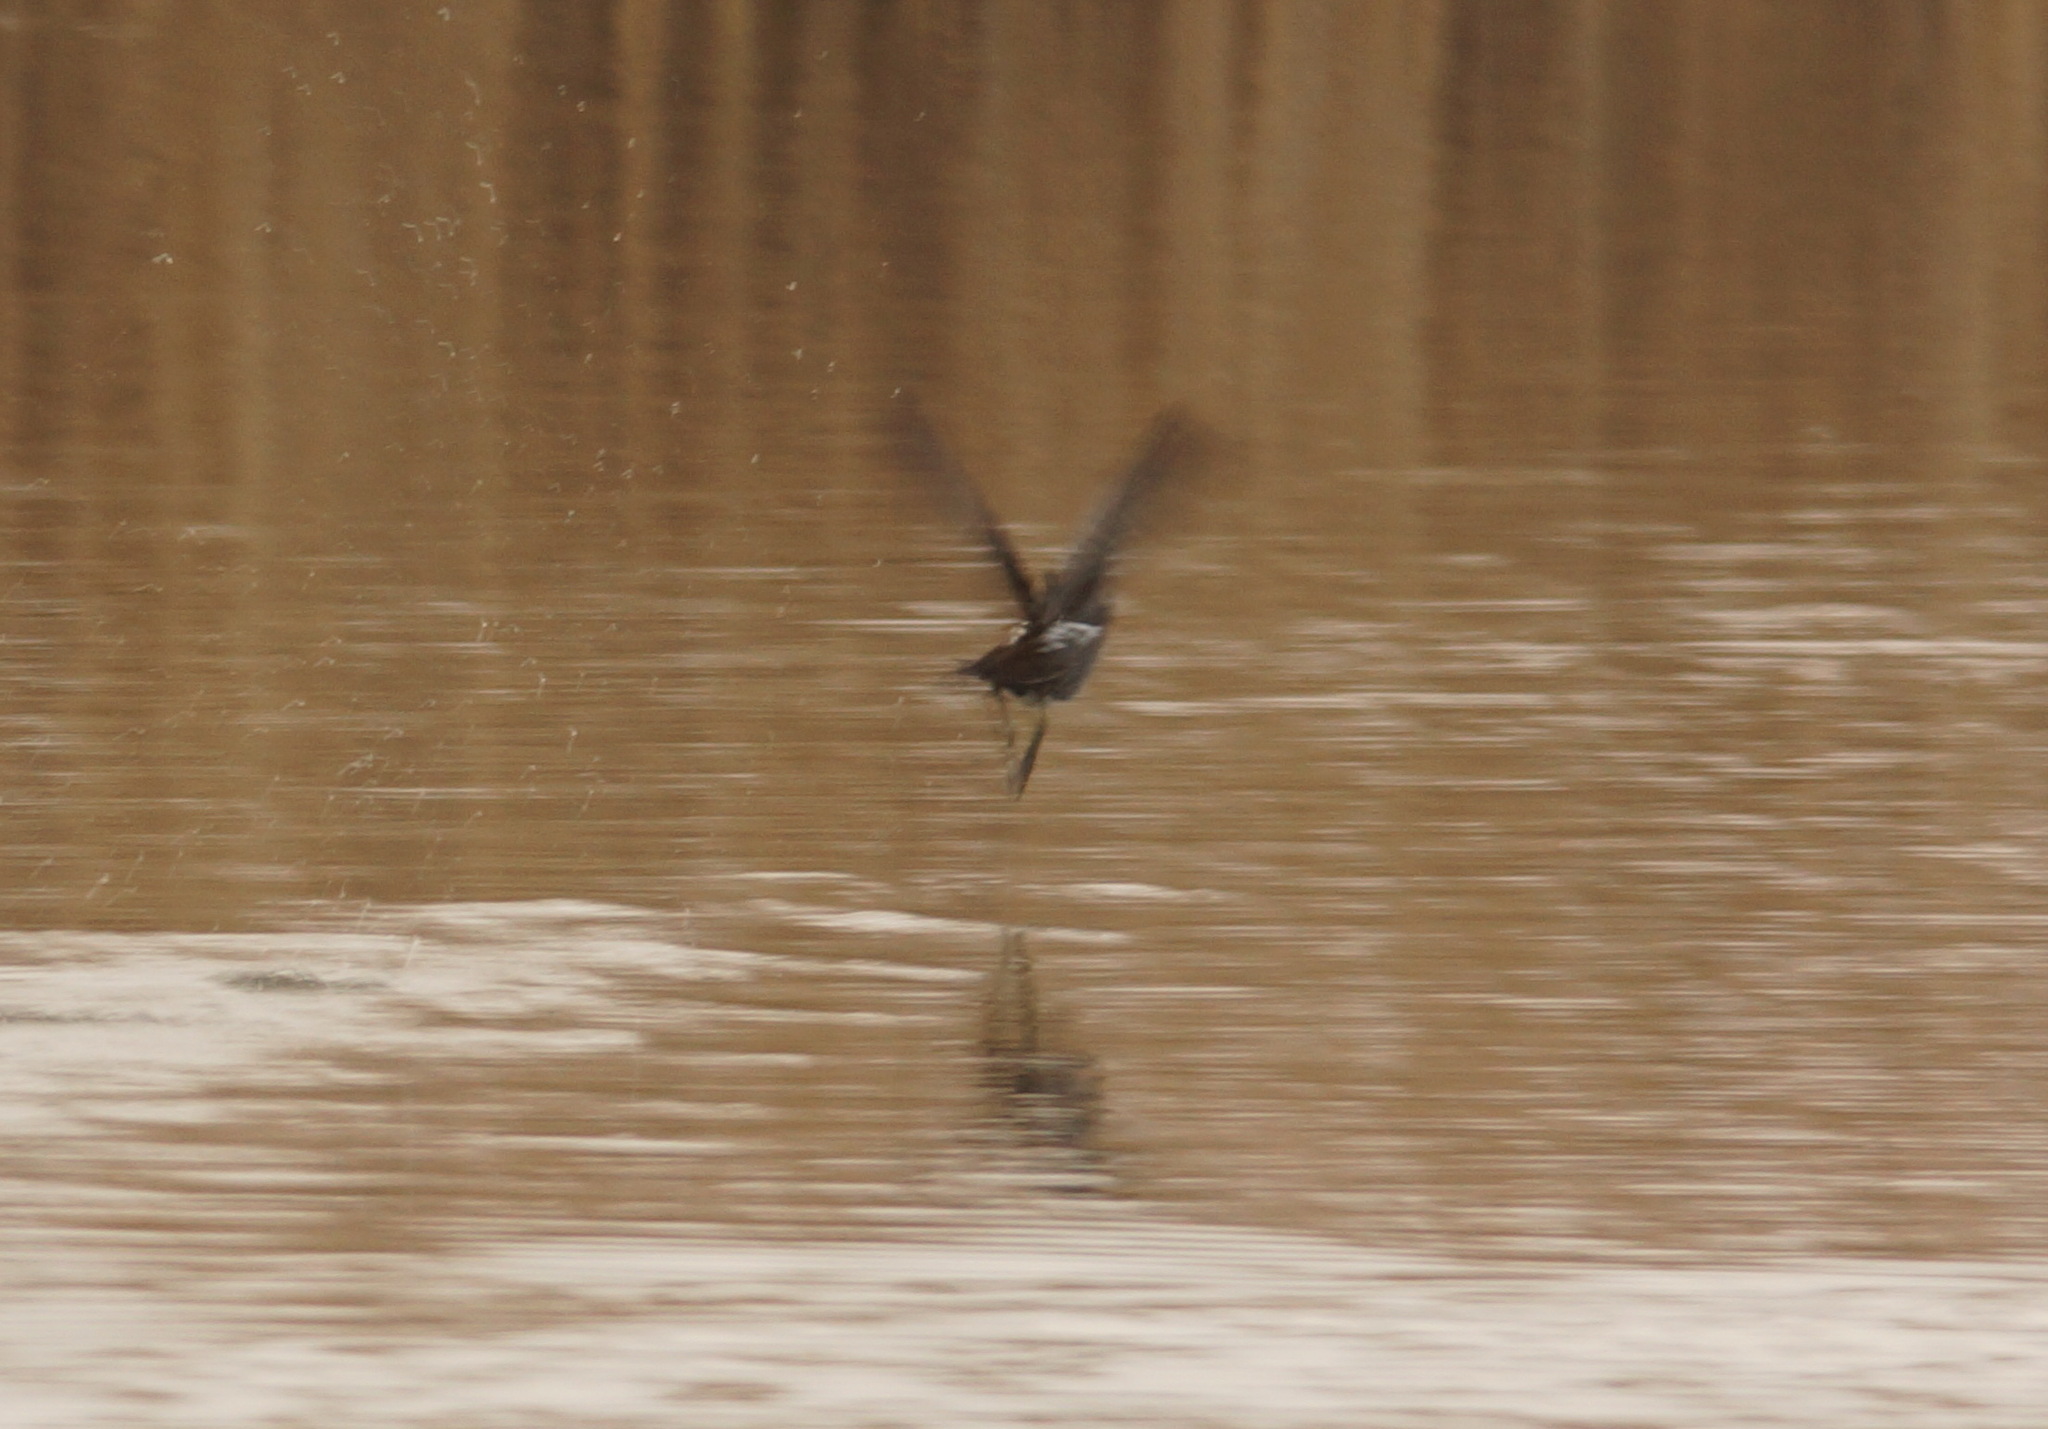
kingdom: Animalia
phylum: Chordata
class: Aves
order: Gruiformes
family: Rallidae
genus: Gallinula
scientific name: Gallinula chloropus
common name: Common moorhen
